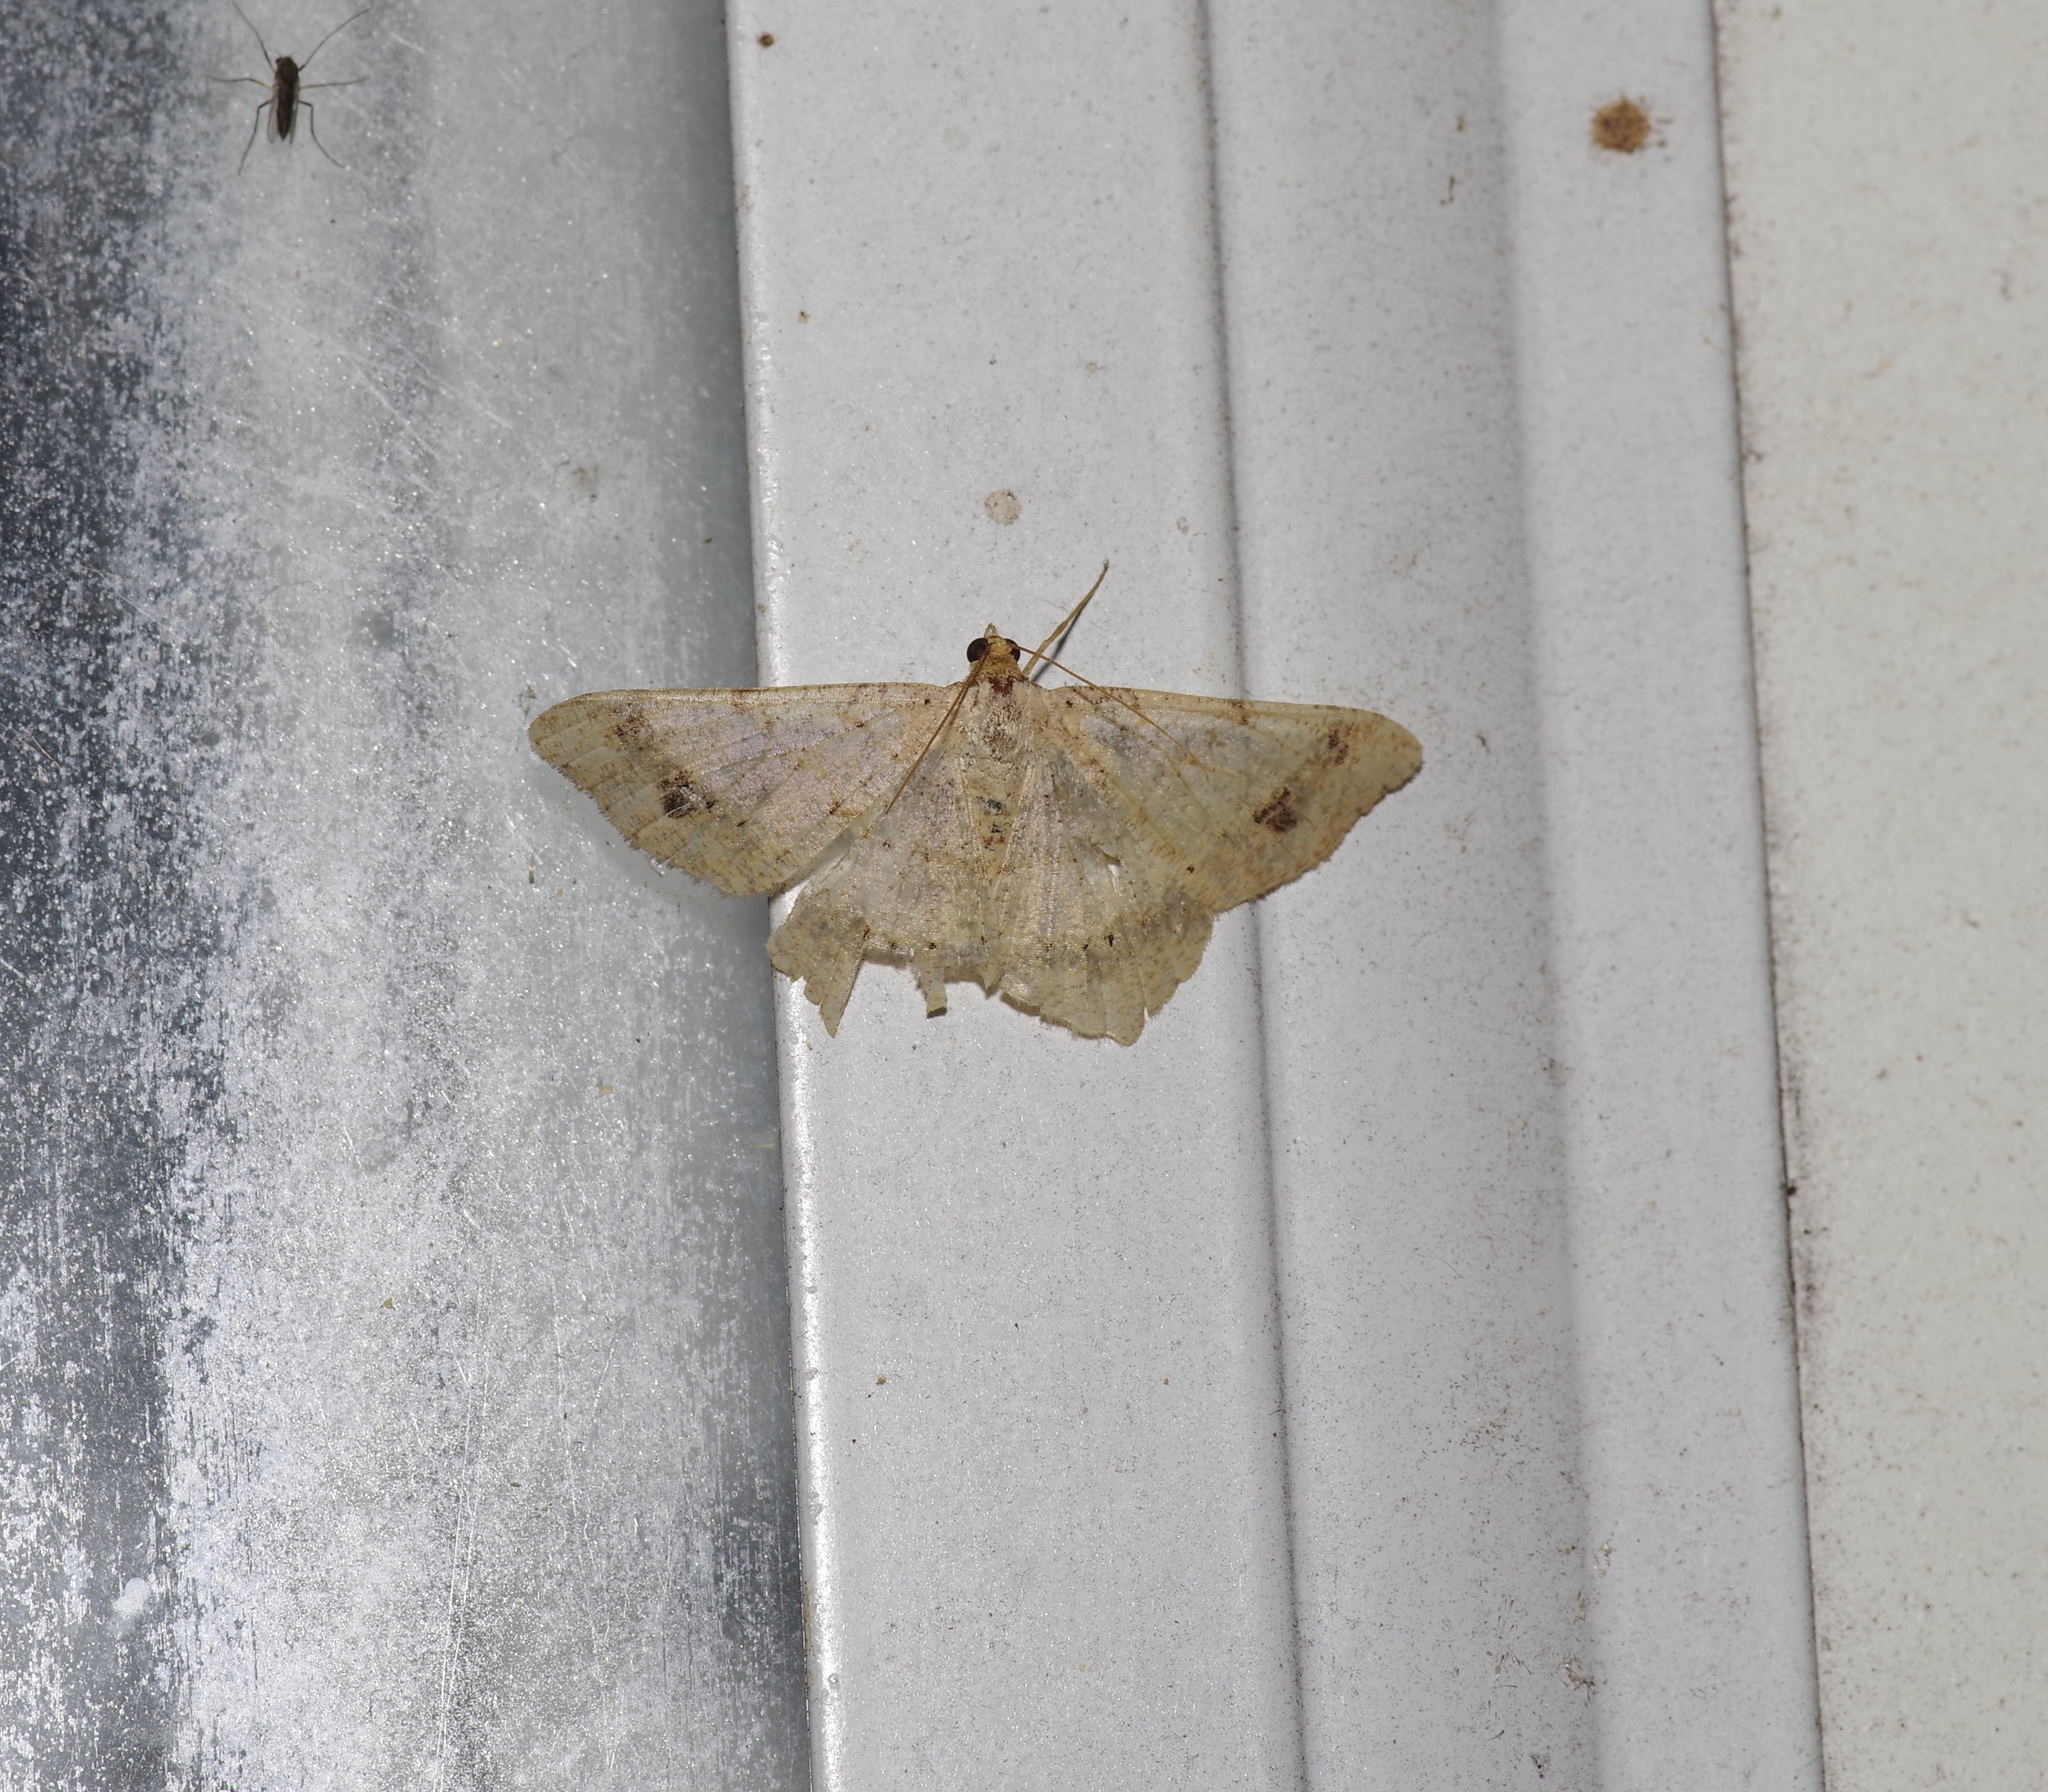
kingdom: Animalia
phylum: Arthropoda
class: Insecta
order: Lepidoptera
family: Geometridae
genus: Macaria
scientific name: Macaria aemulataria
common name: Common angle
